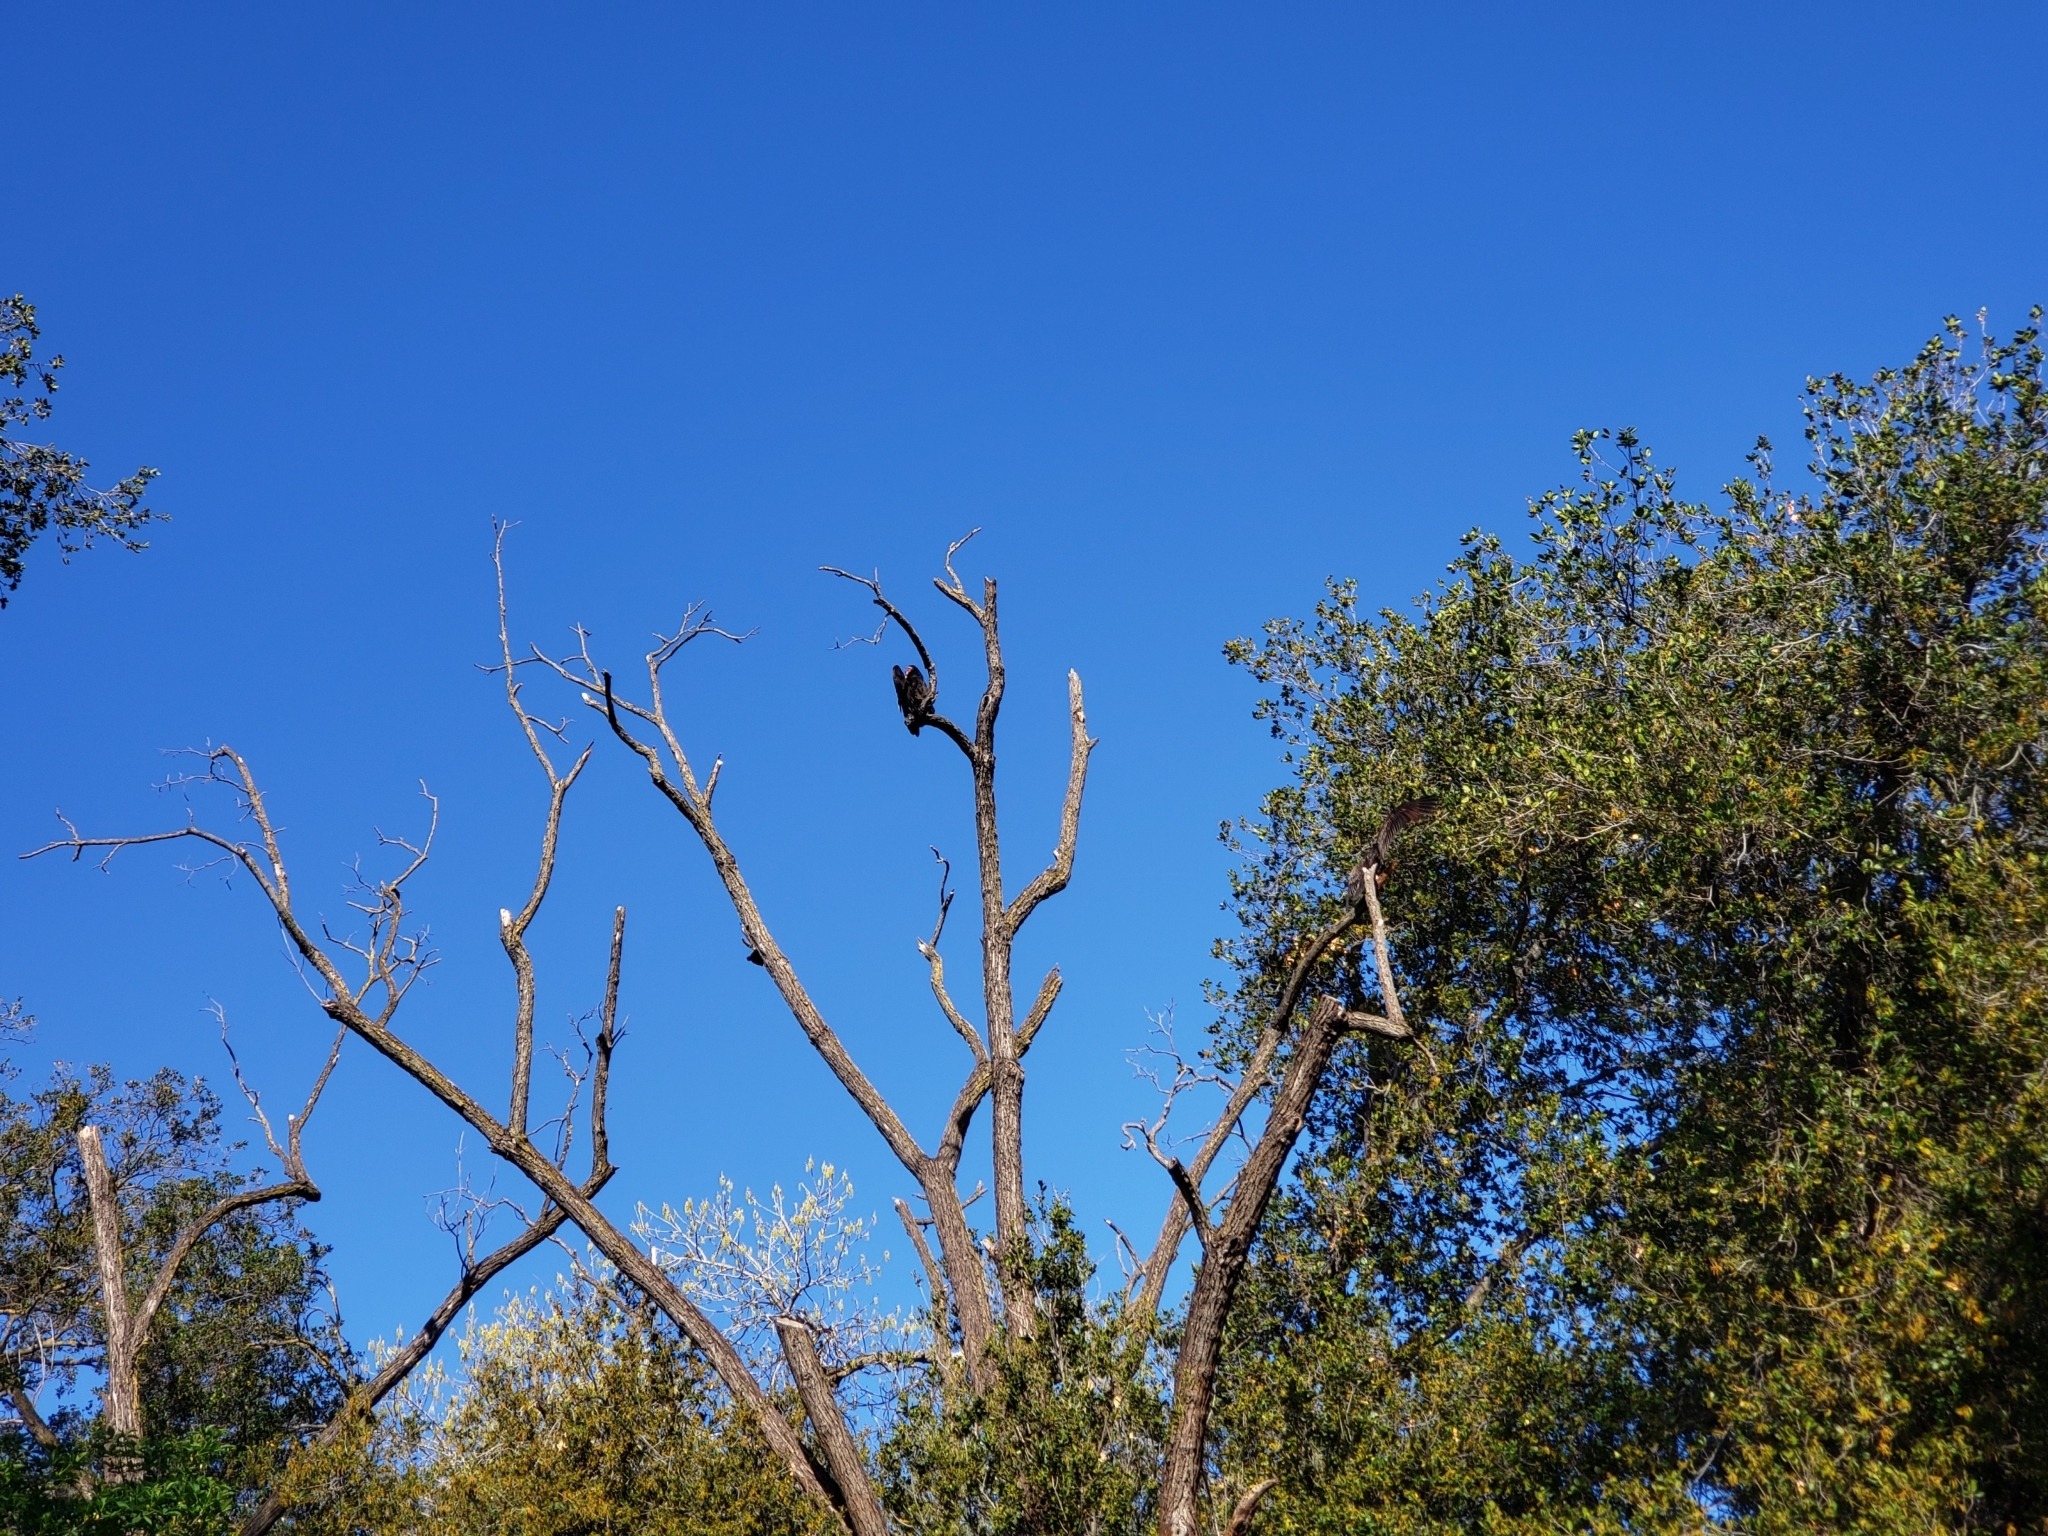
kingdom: Animalia
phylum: Chordata
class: Aves
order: Accipitriformes
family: Cathartidae
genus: Cathartes
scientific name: Cathartes aura
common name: Turkey vulture
